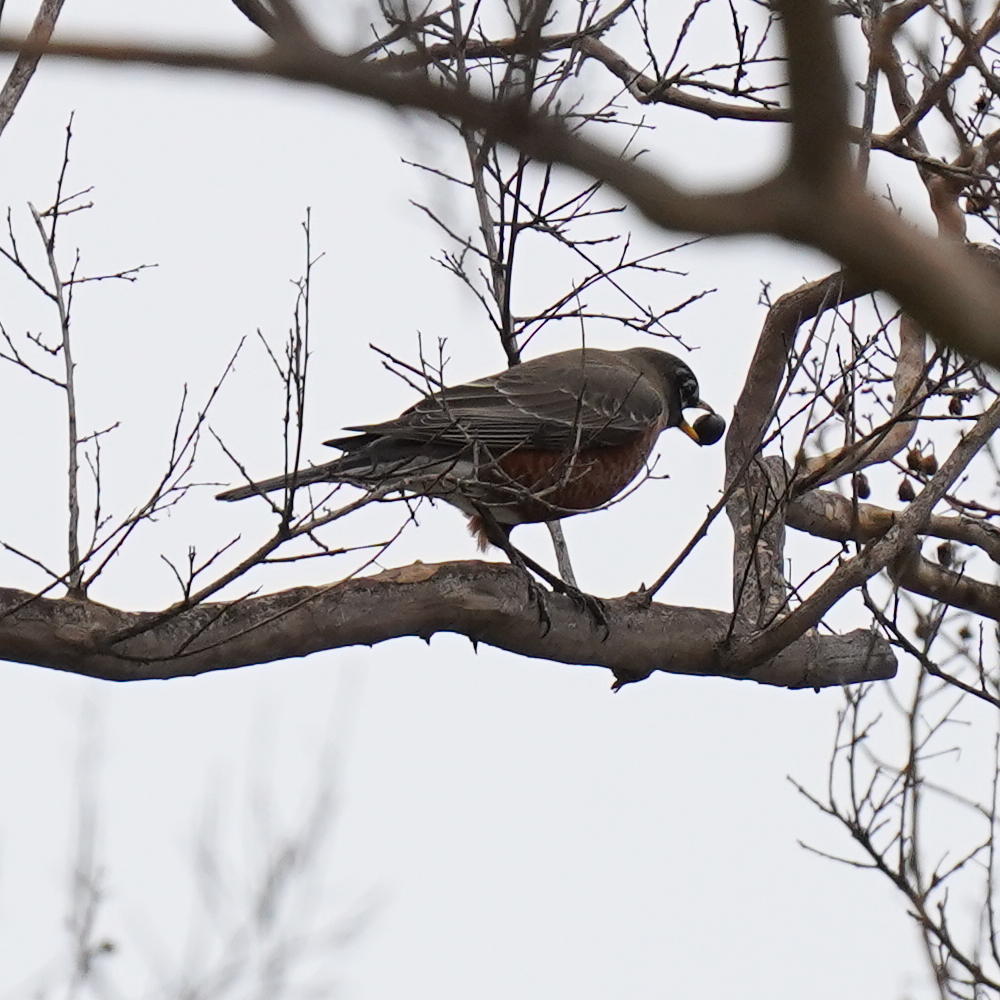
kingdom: Animalia
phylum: Chordata
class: Aves
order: Passeriformes
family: Turdidae
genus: Turdus
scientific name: Turdus migratorius
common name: American robin
